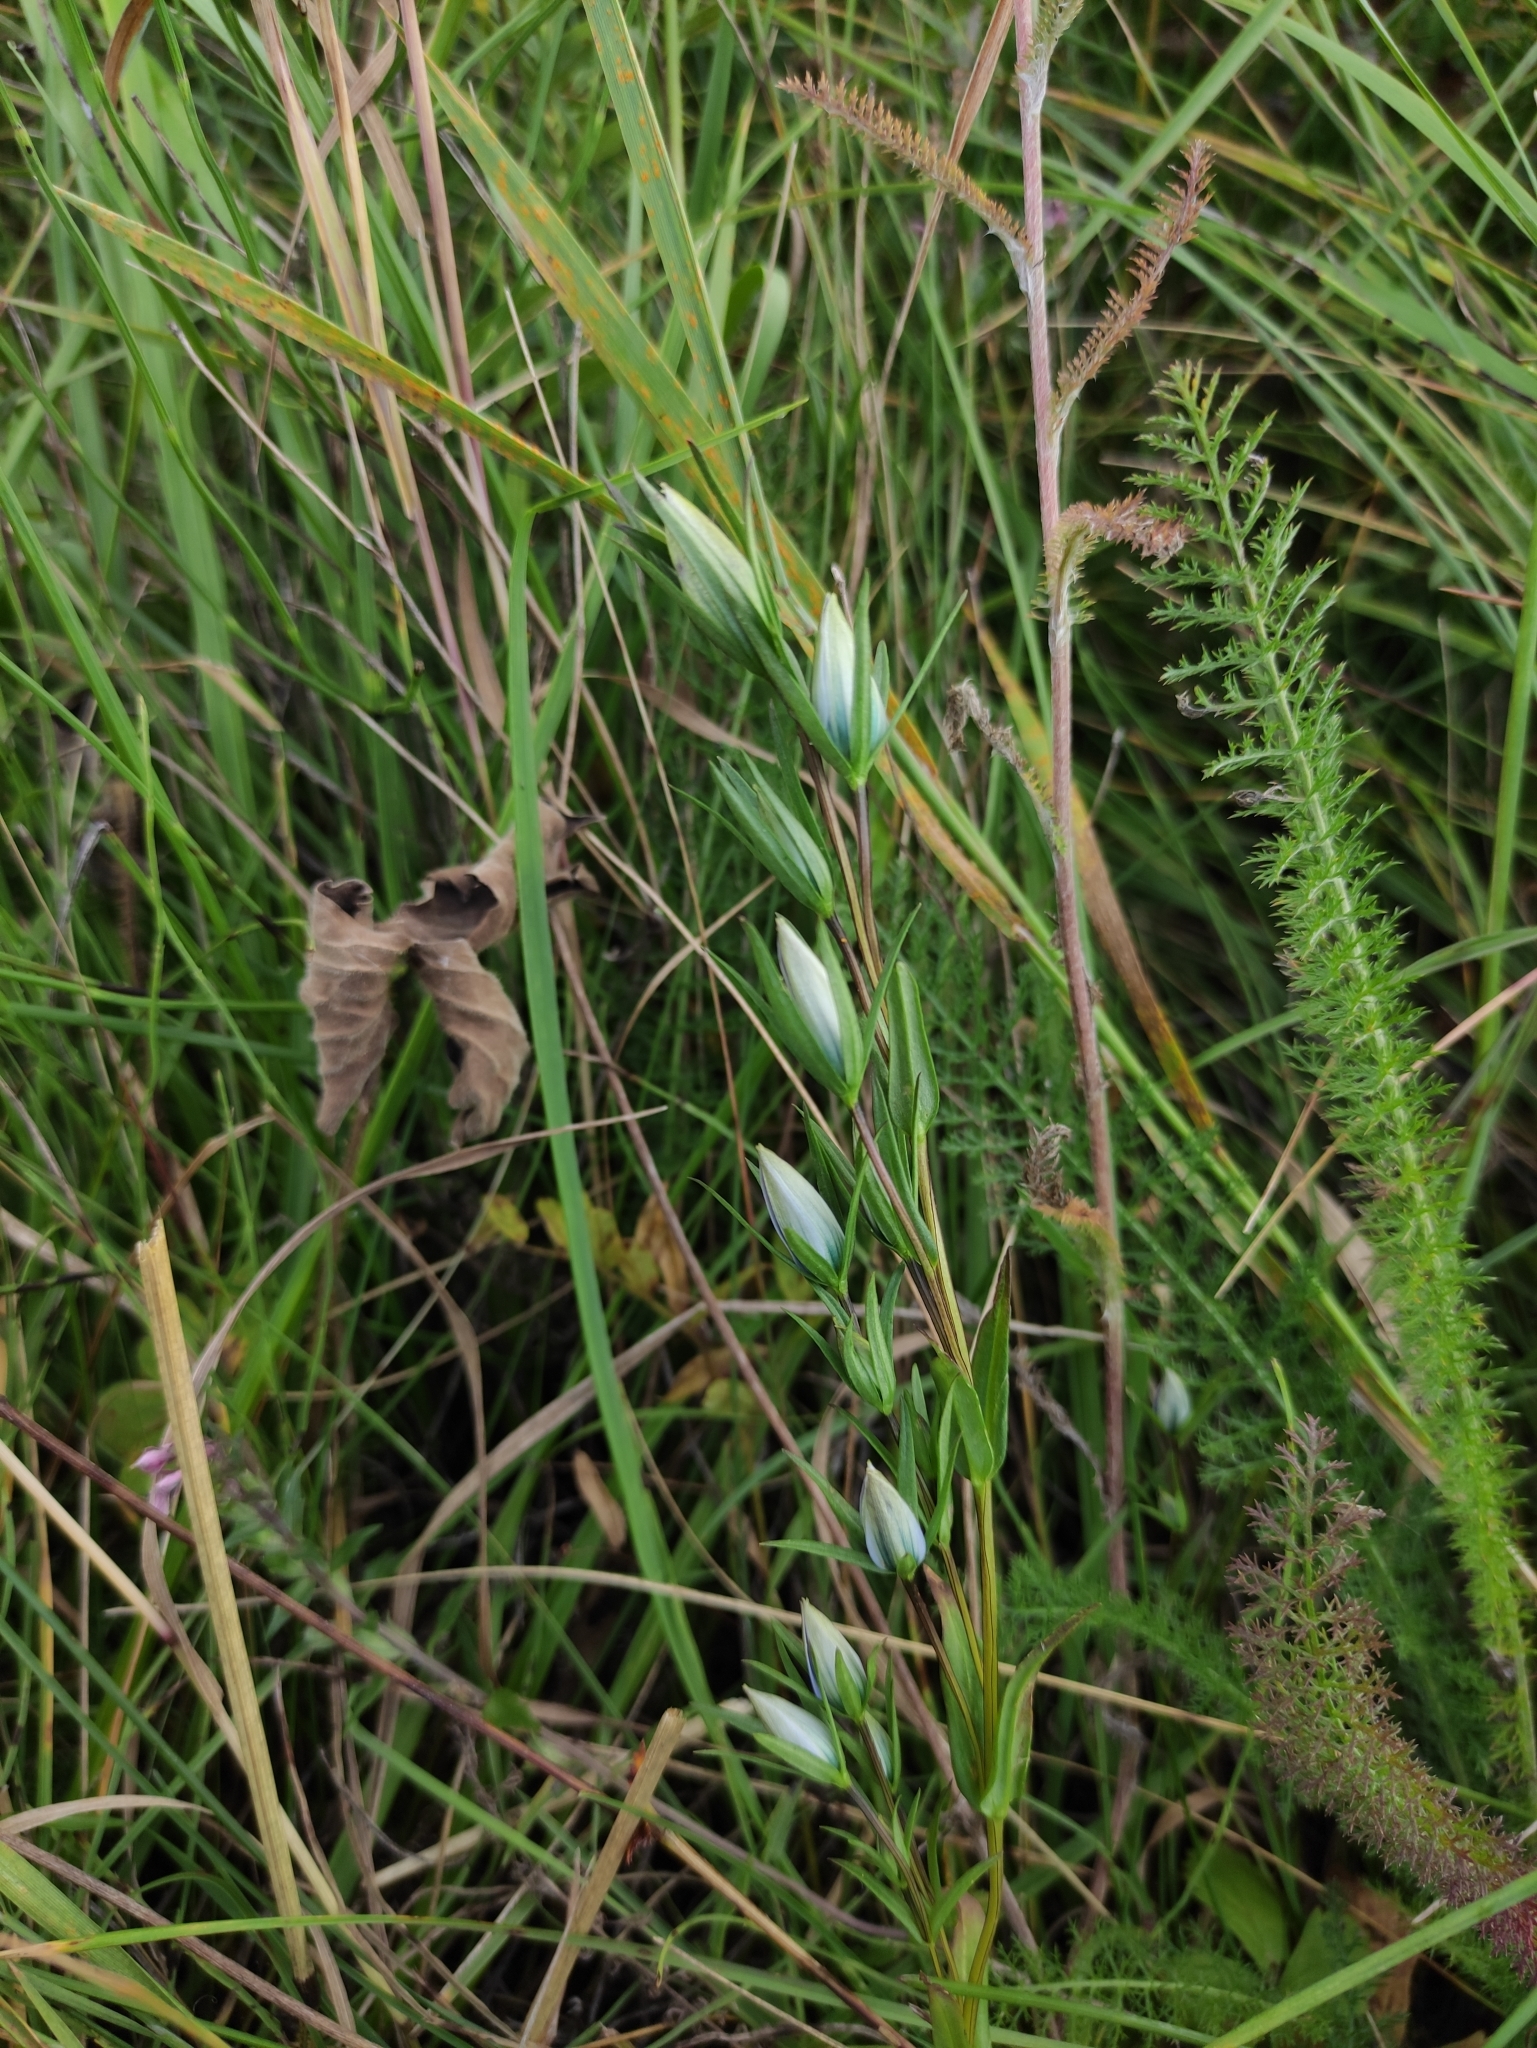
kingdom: Plantae
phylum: Tracheophyta
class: Magnoliopsida
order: Gentianales
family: Gentianaceae
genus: Lomatogonium
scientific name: Lomatogonium rotatum
